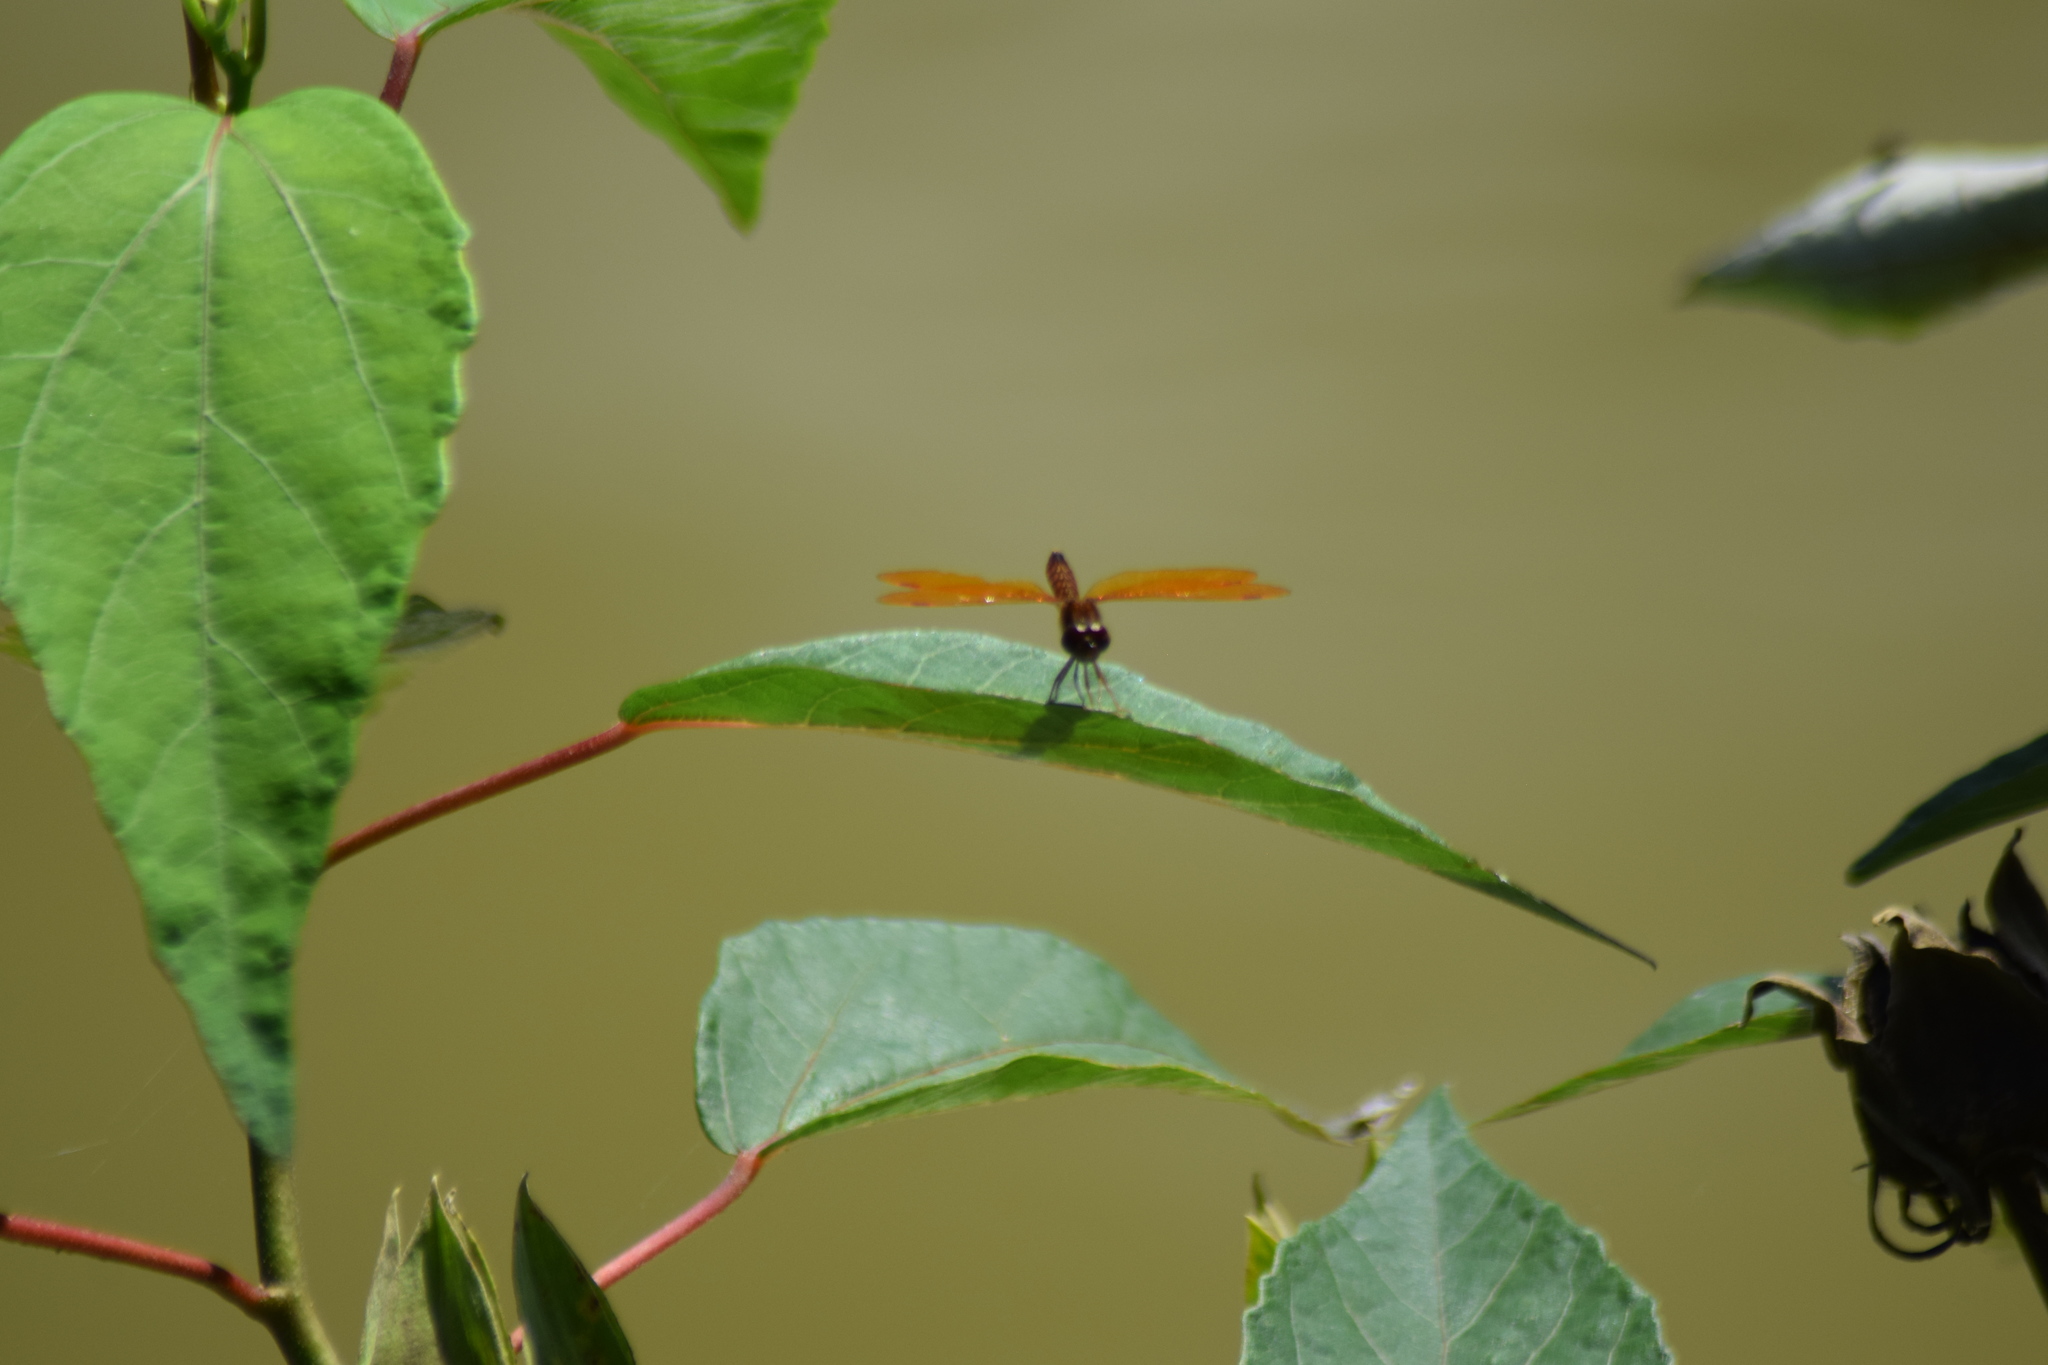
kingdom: Animalia
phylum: Arthropoda
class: Insecta
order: Odonata
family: Libellulidae
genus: Perithemis
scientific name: Perithemis tenera
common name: Eastern amberwing
